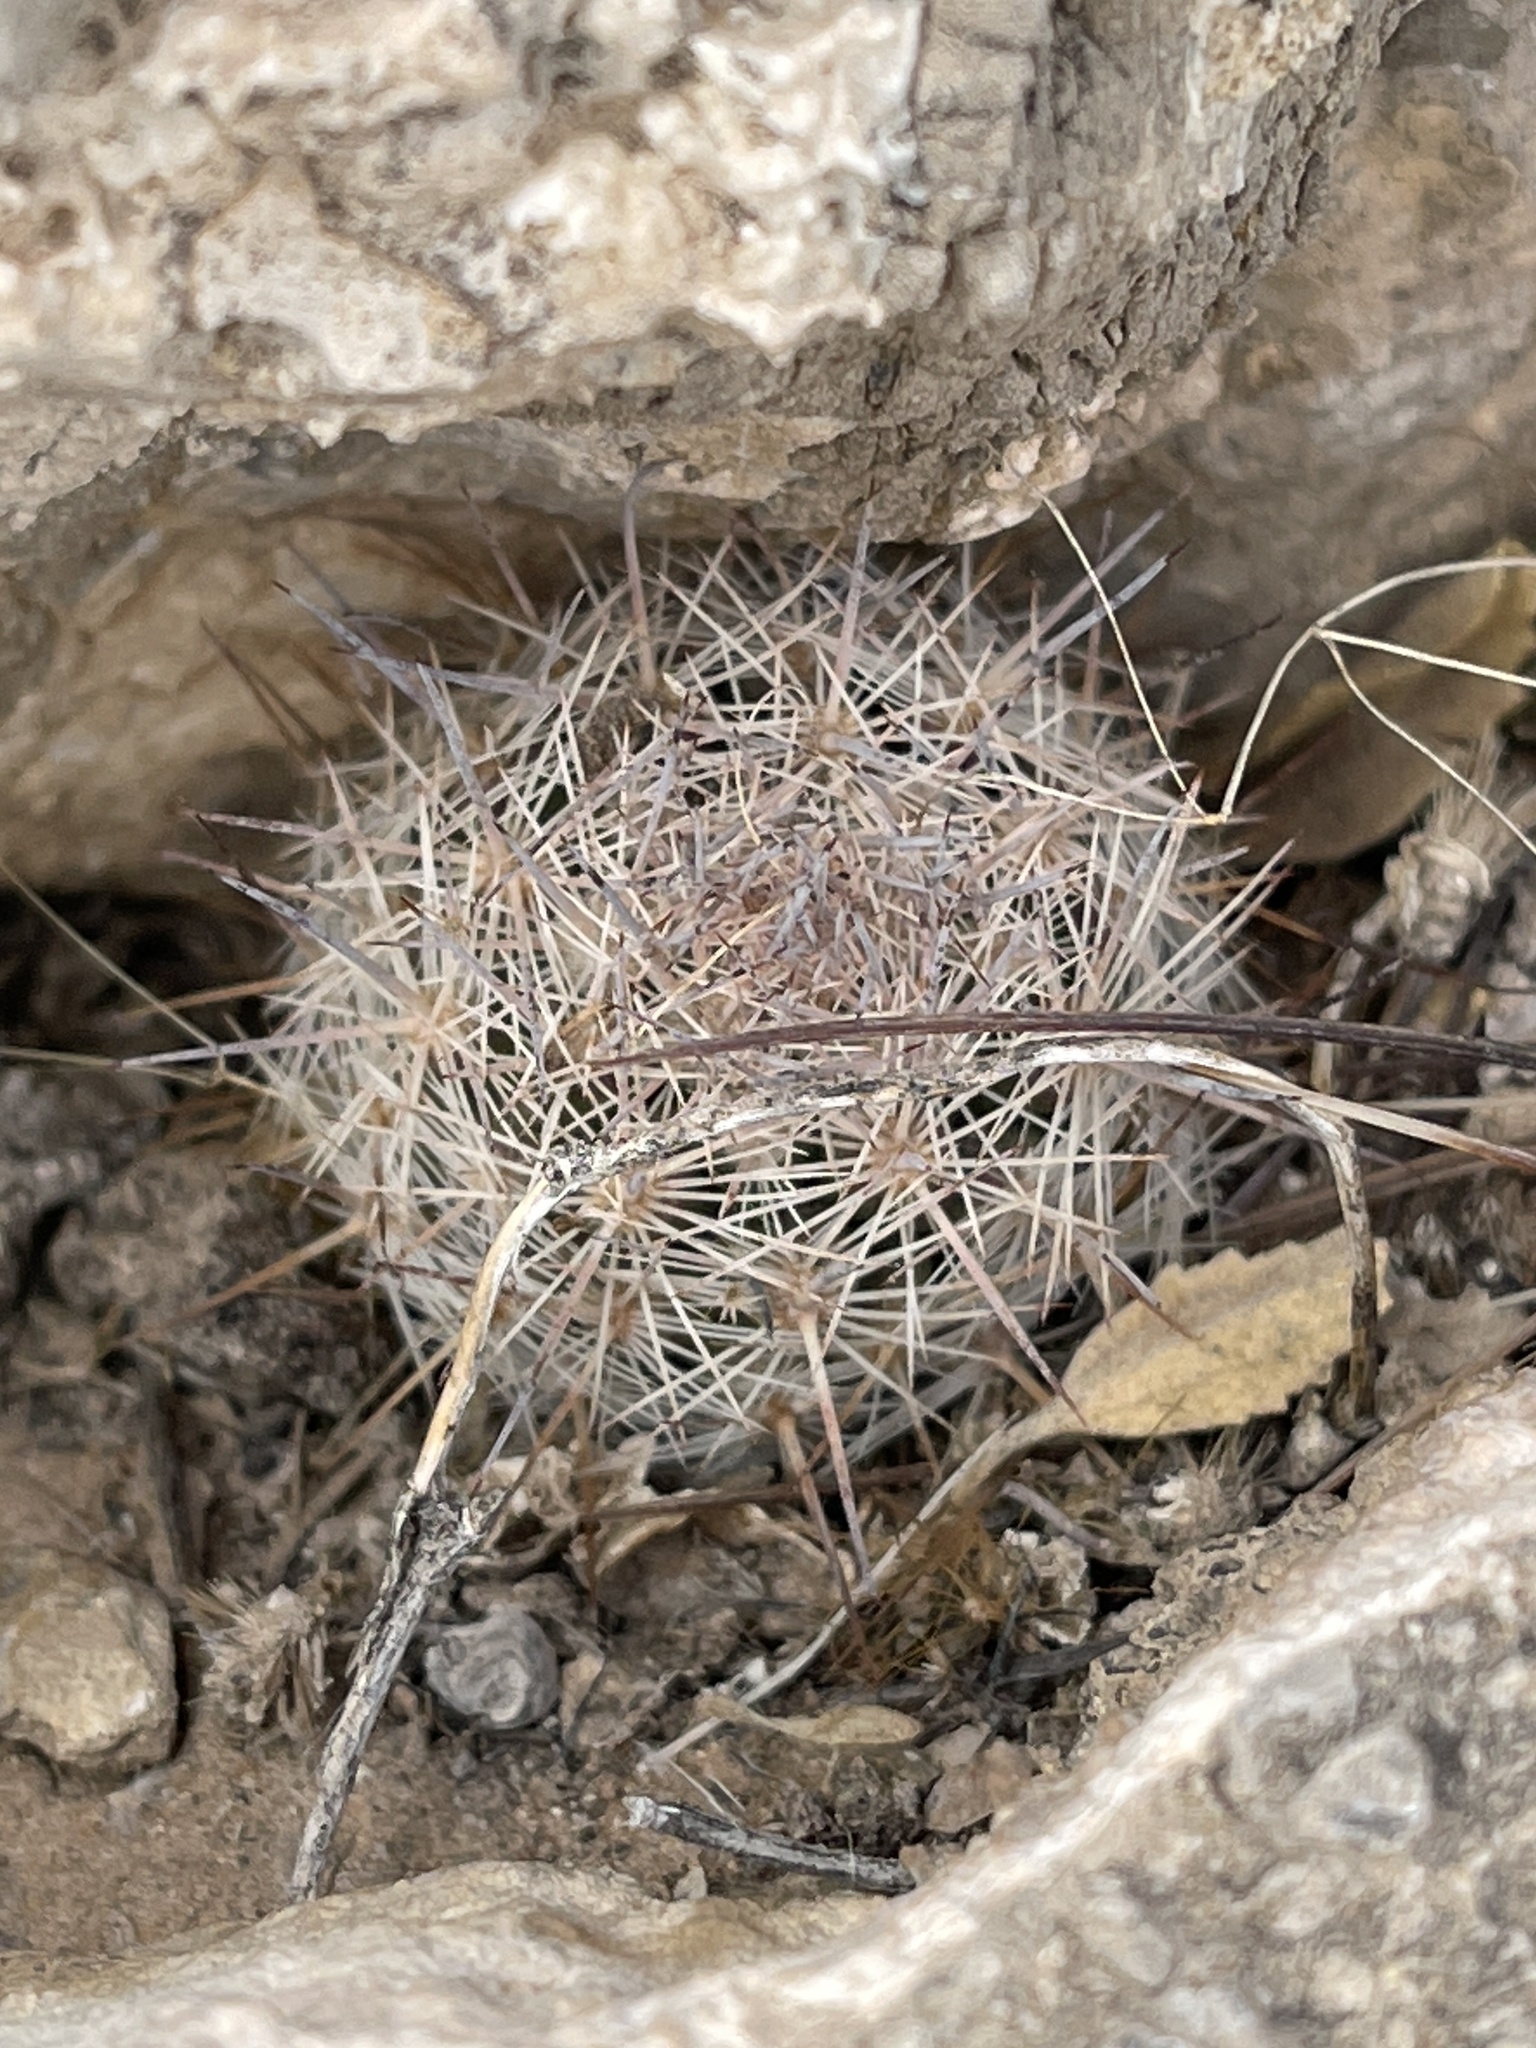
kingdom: Plantae
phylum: Tracheophyta
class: Magnoliopsida
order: Caryophyllales
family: Cactaceae
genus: Pelecyphora
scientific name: Pelecyphora tuberculosa
